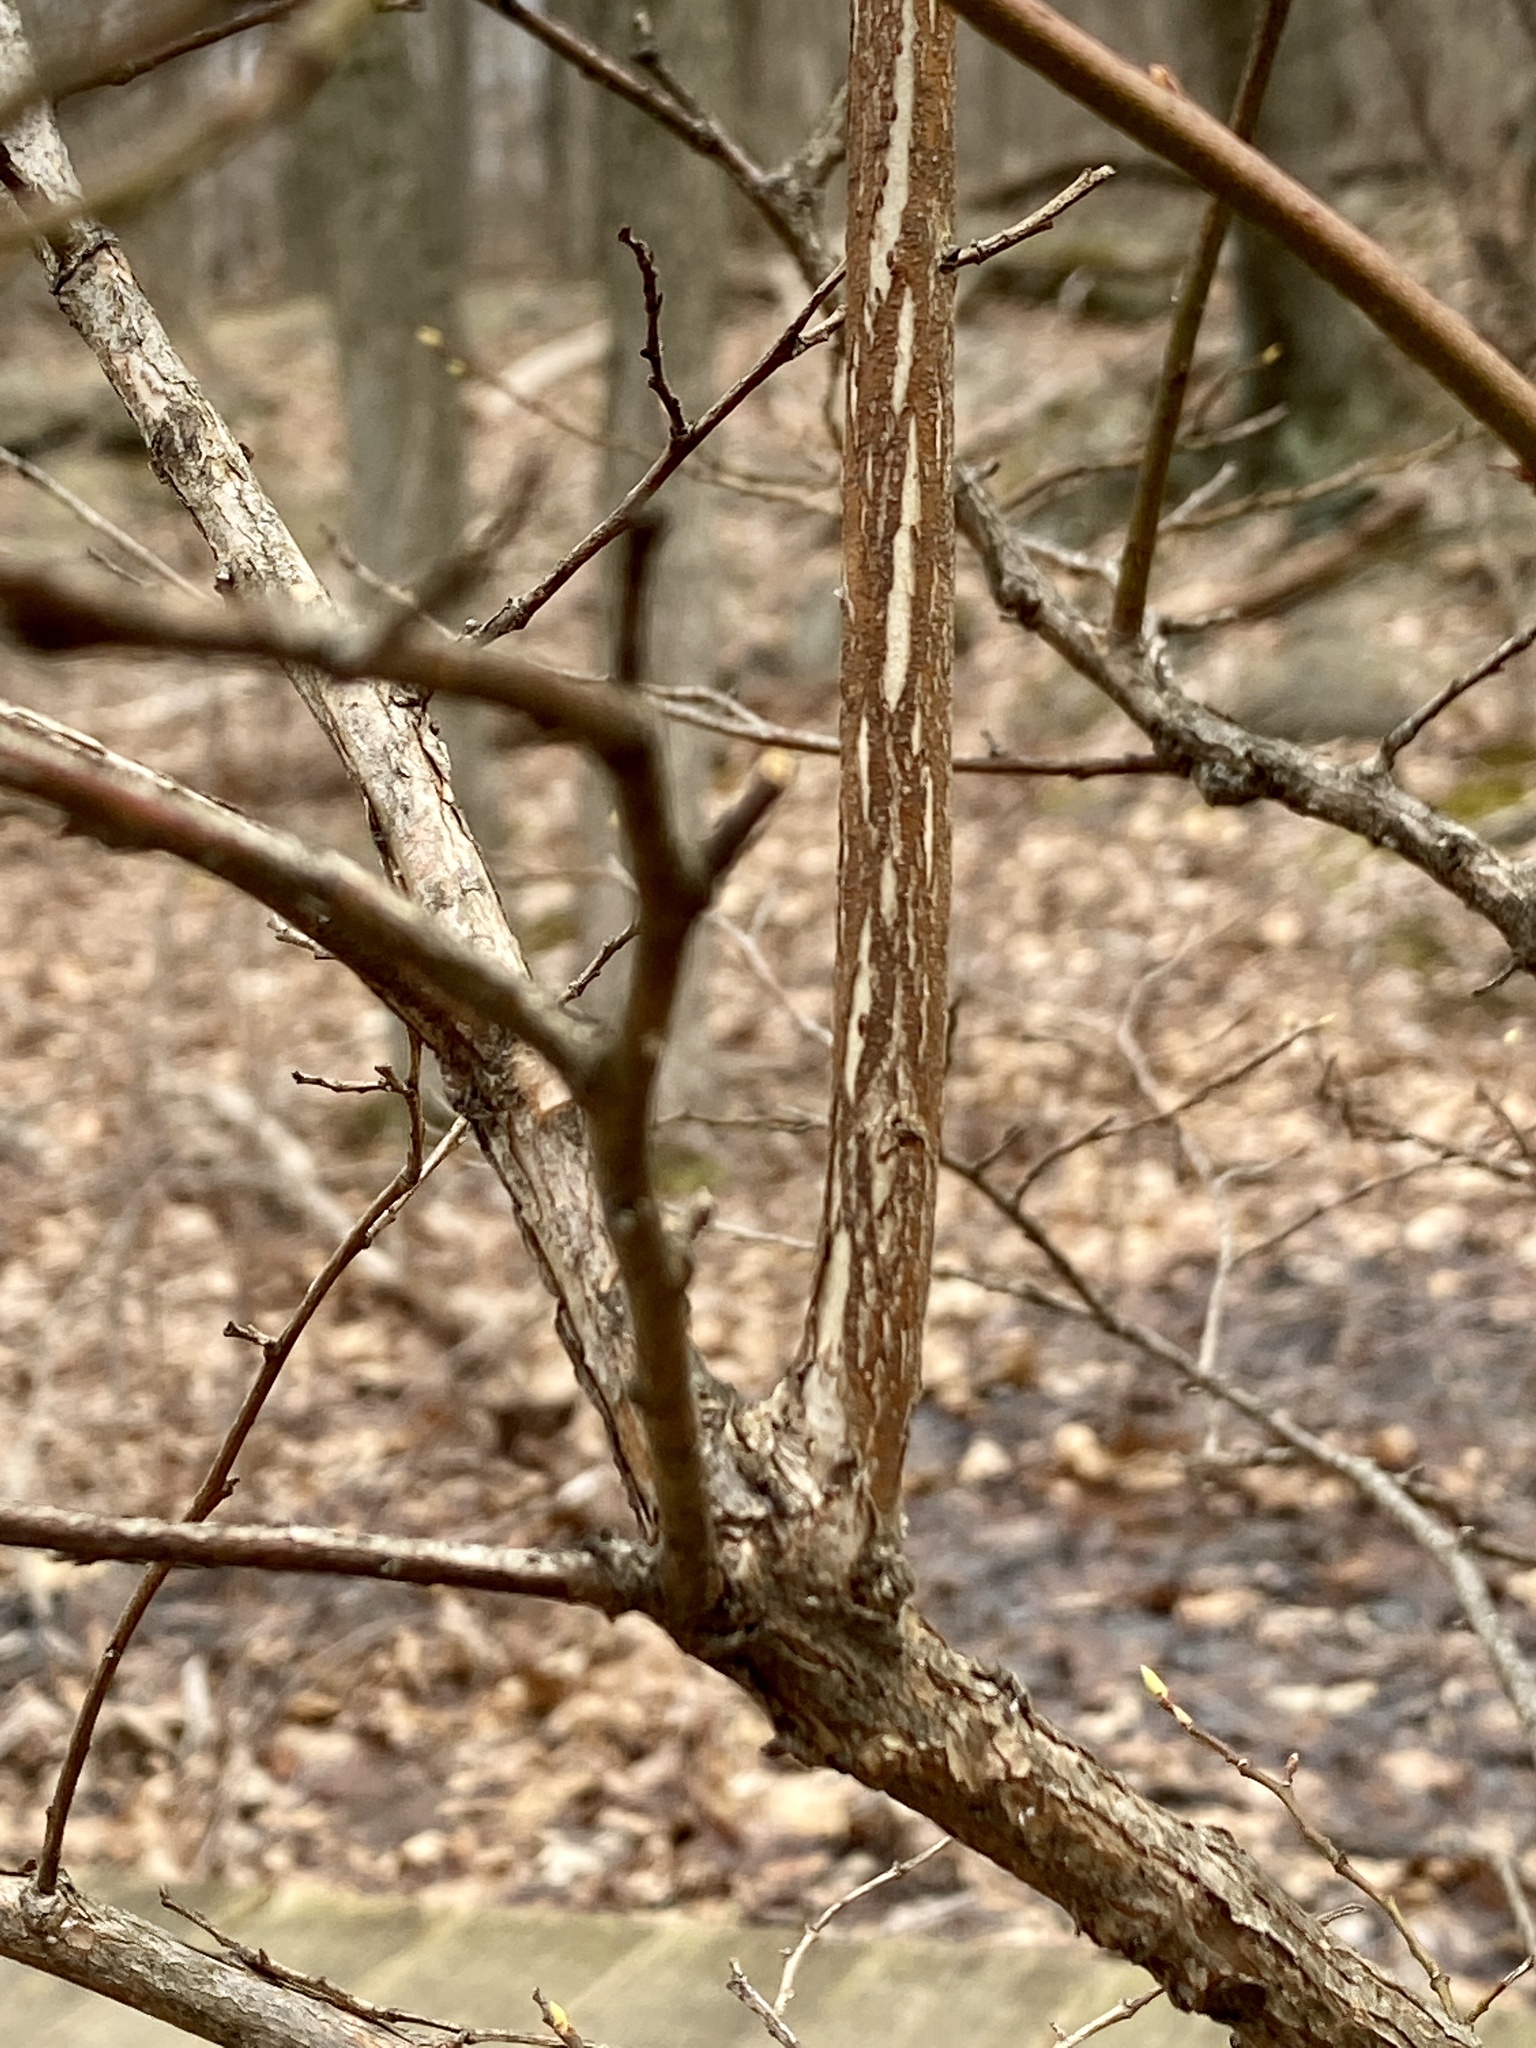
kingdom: Animalia
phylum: Arthropoda
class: Insecta
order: Hymenoptera
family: Pteromalidae
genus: Hemadas
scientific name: Hemadas nubilipennis
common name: Blueberry stem gall wasp
